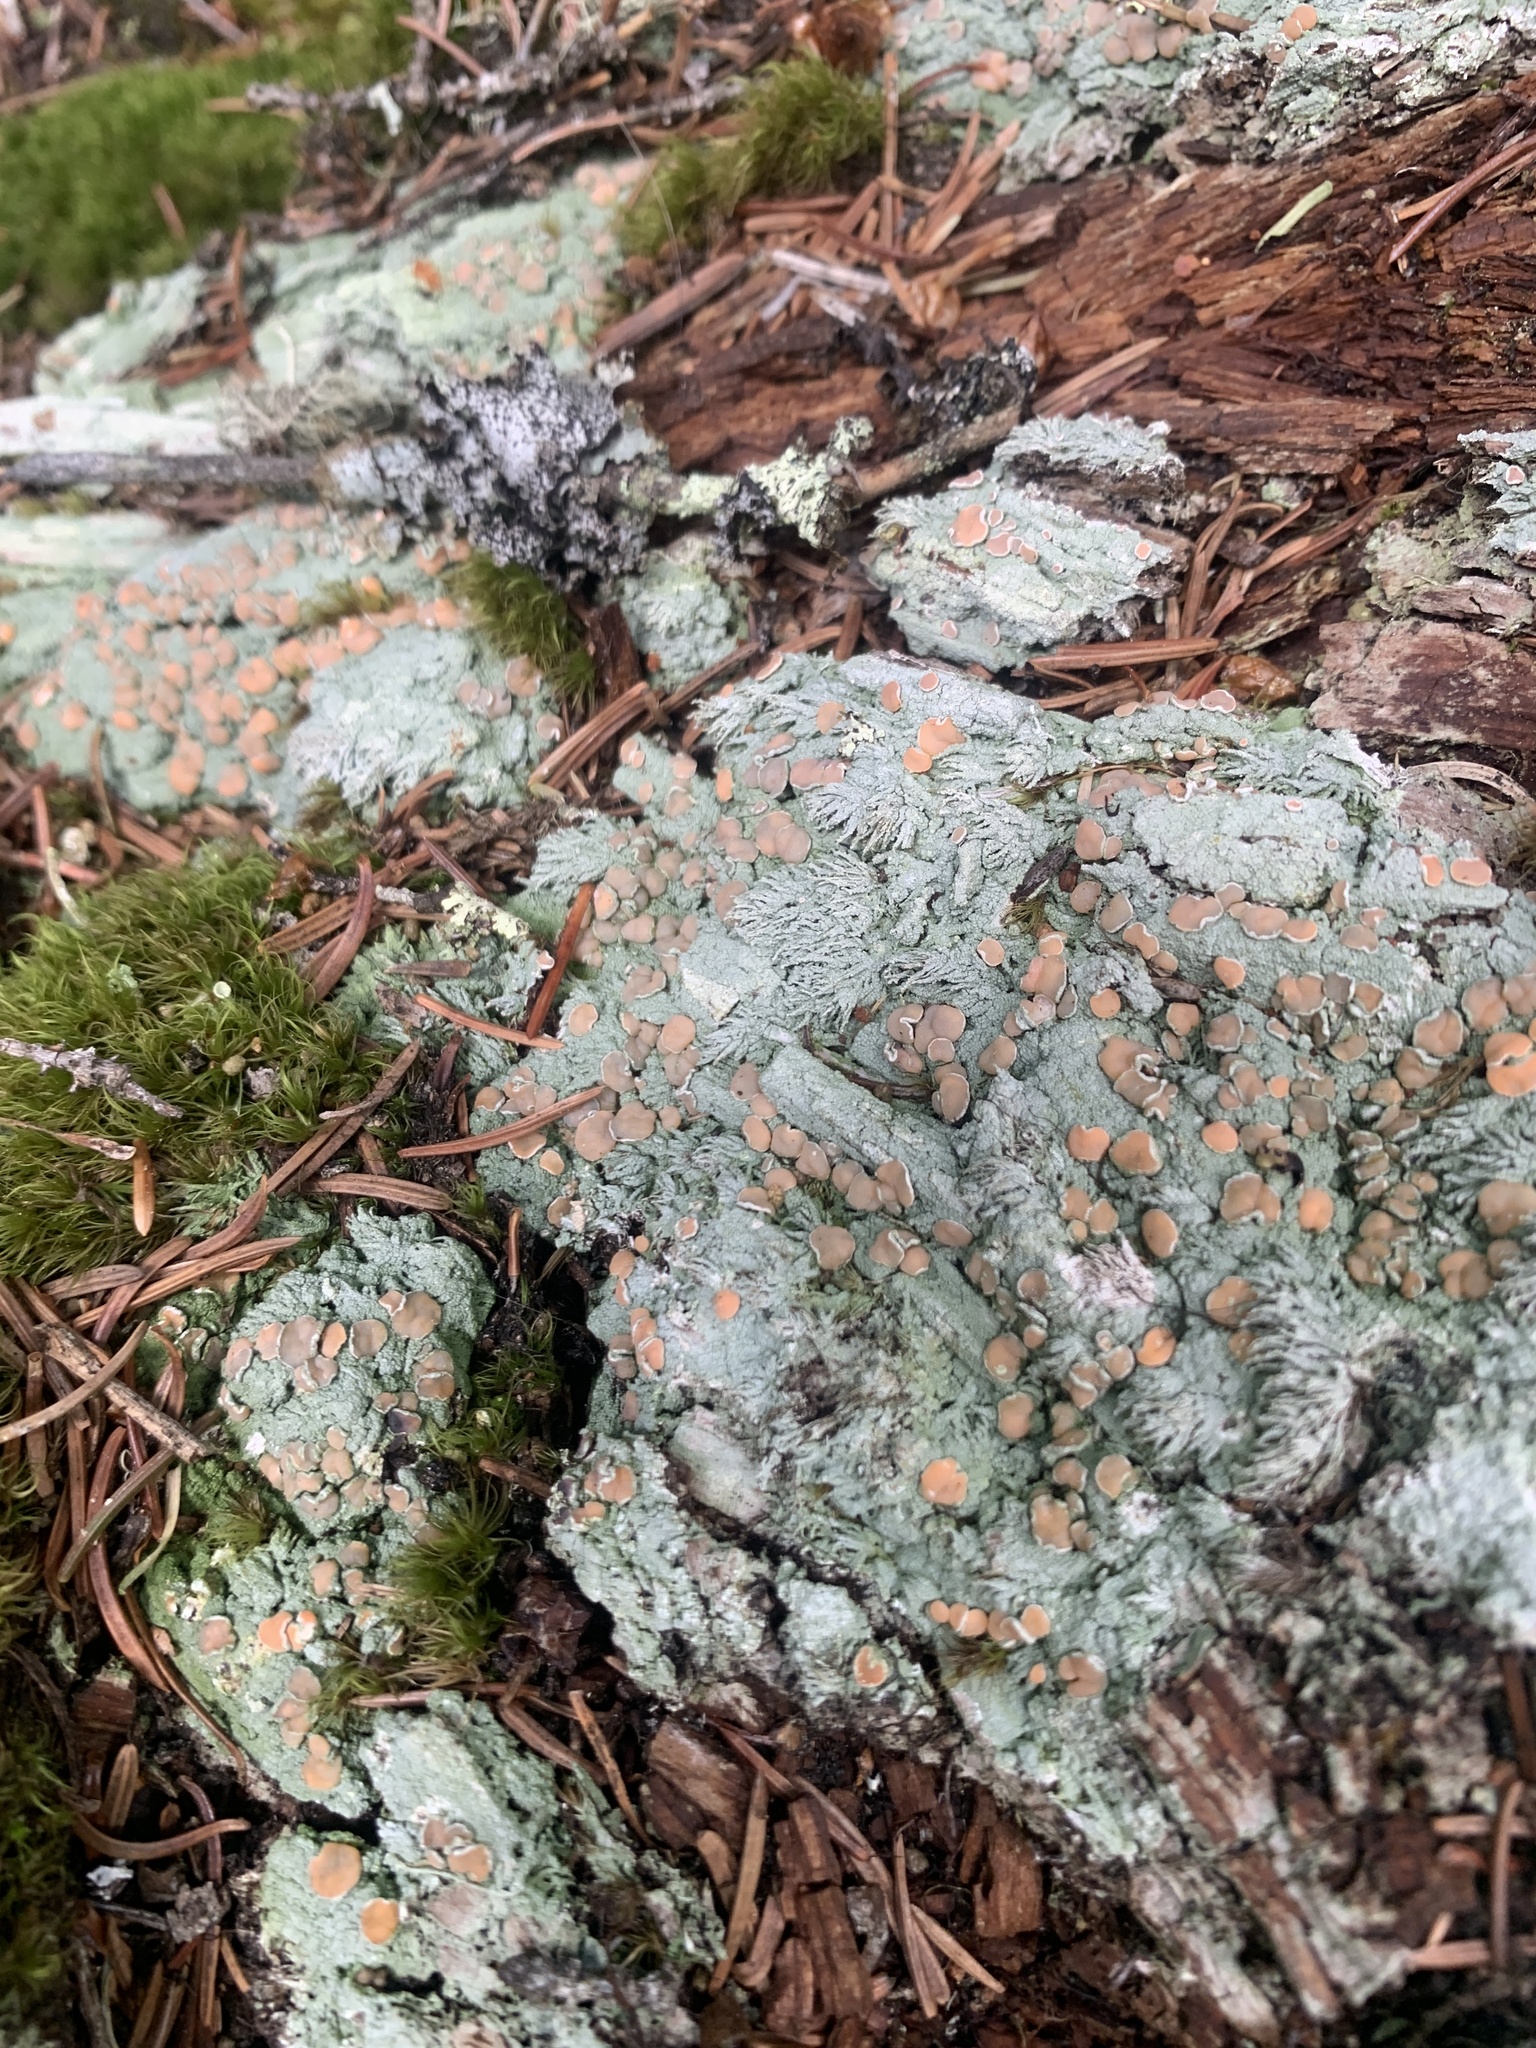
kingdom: Fungi
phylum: Ascomycota
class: Lecanoromycetes
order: Pertusariales
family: Icmadophilaceae
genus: Icmadophila
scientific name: Icmadophila ericetorum
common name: Candy lichen
